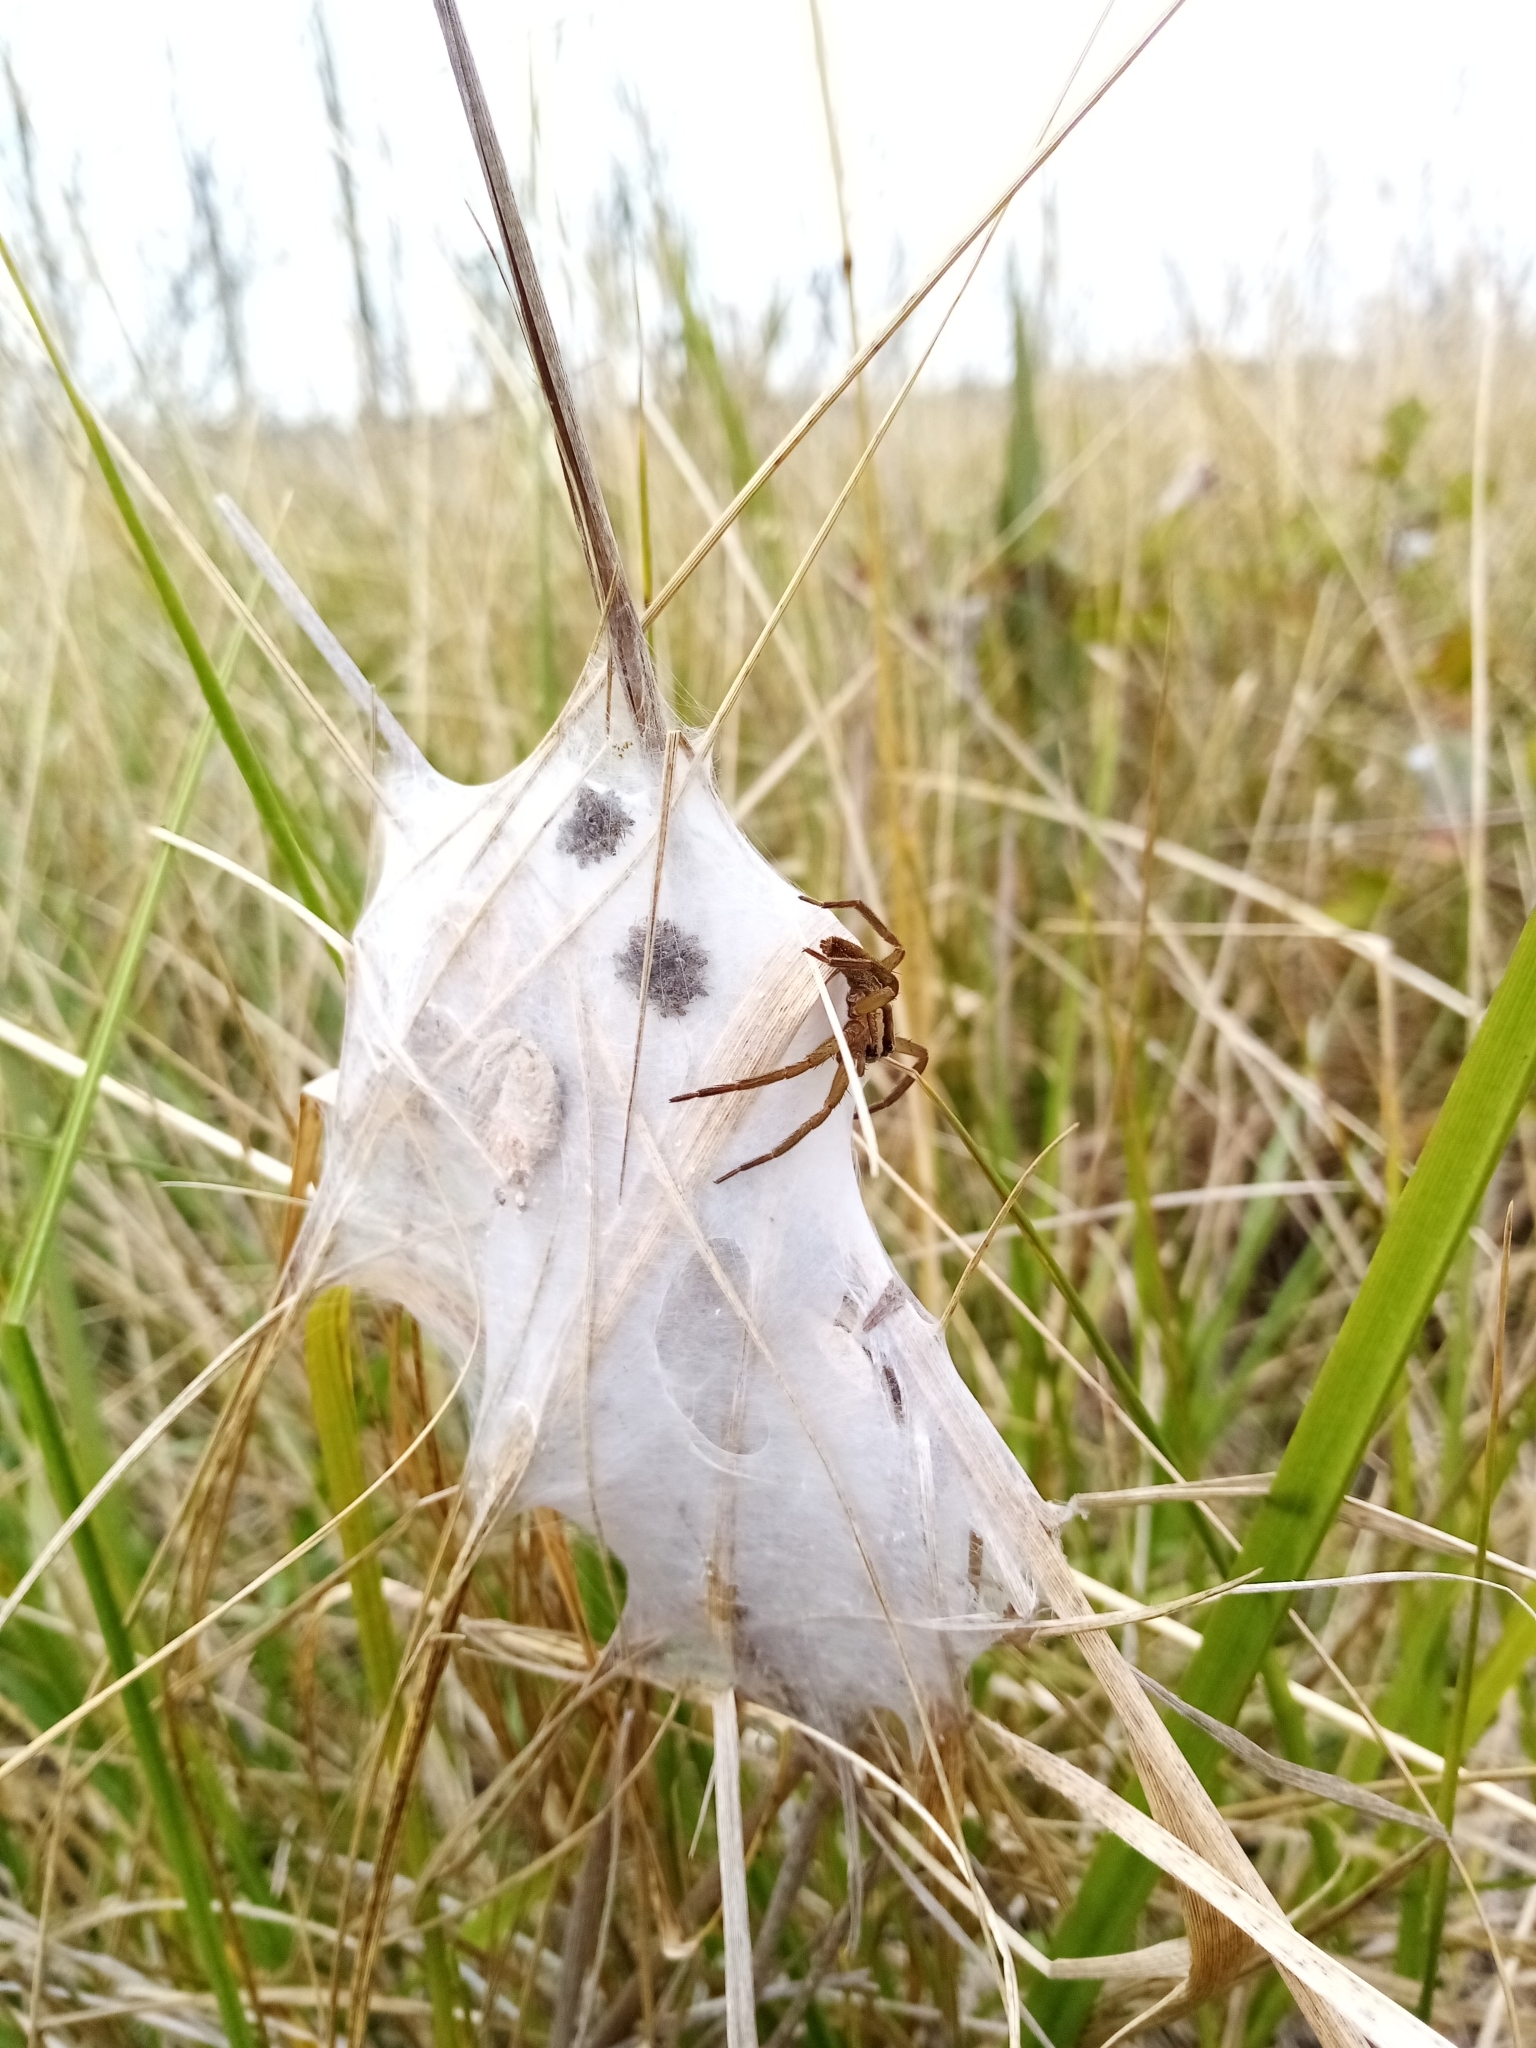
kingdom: Animalia
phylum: Arthropoda
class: Arachnida
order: Araneae
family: Pisauridae
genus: Dolomedes
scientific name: Dolomedes minor
